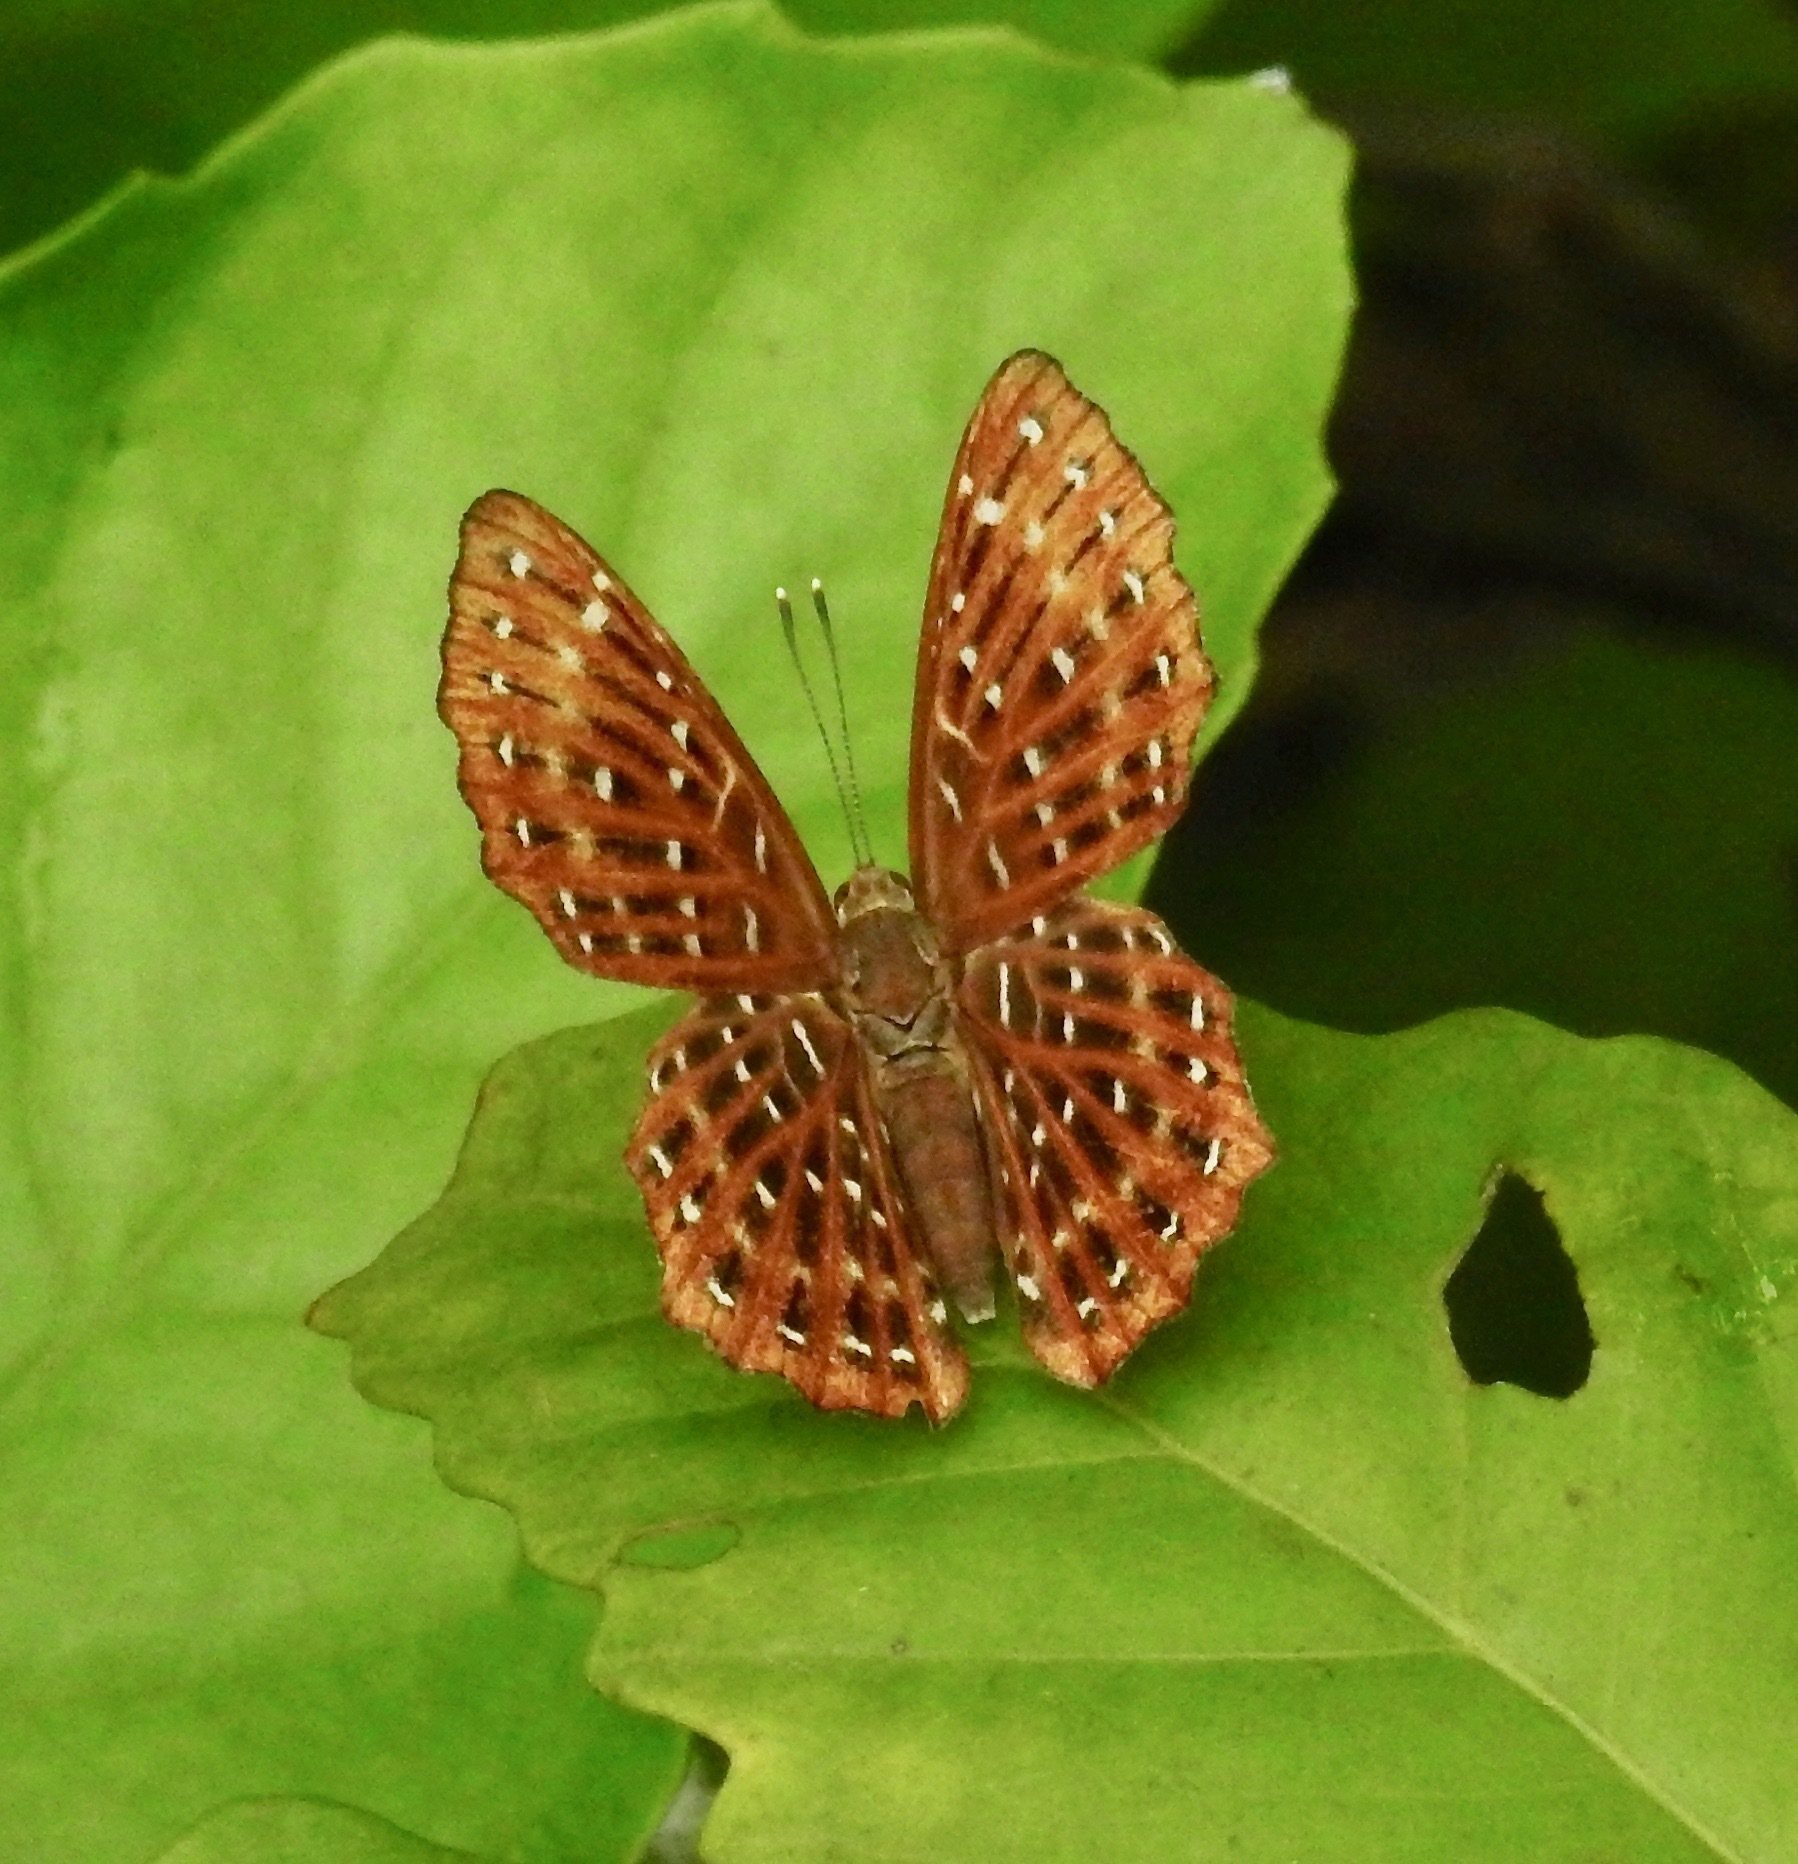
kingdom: Animalia
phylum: Arthropoda
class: Insecta
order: Lepidoptera
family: Riodinidae
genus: Zemeros
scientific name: Zemeros flegyas
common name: Punchinello
